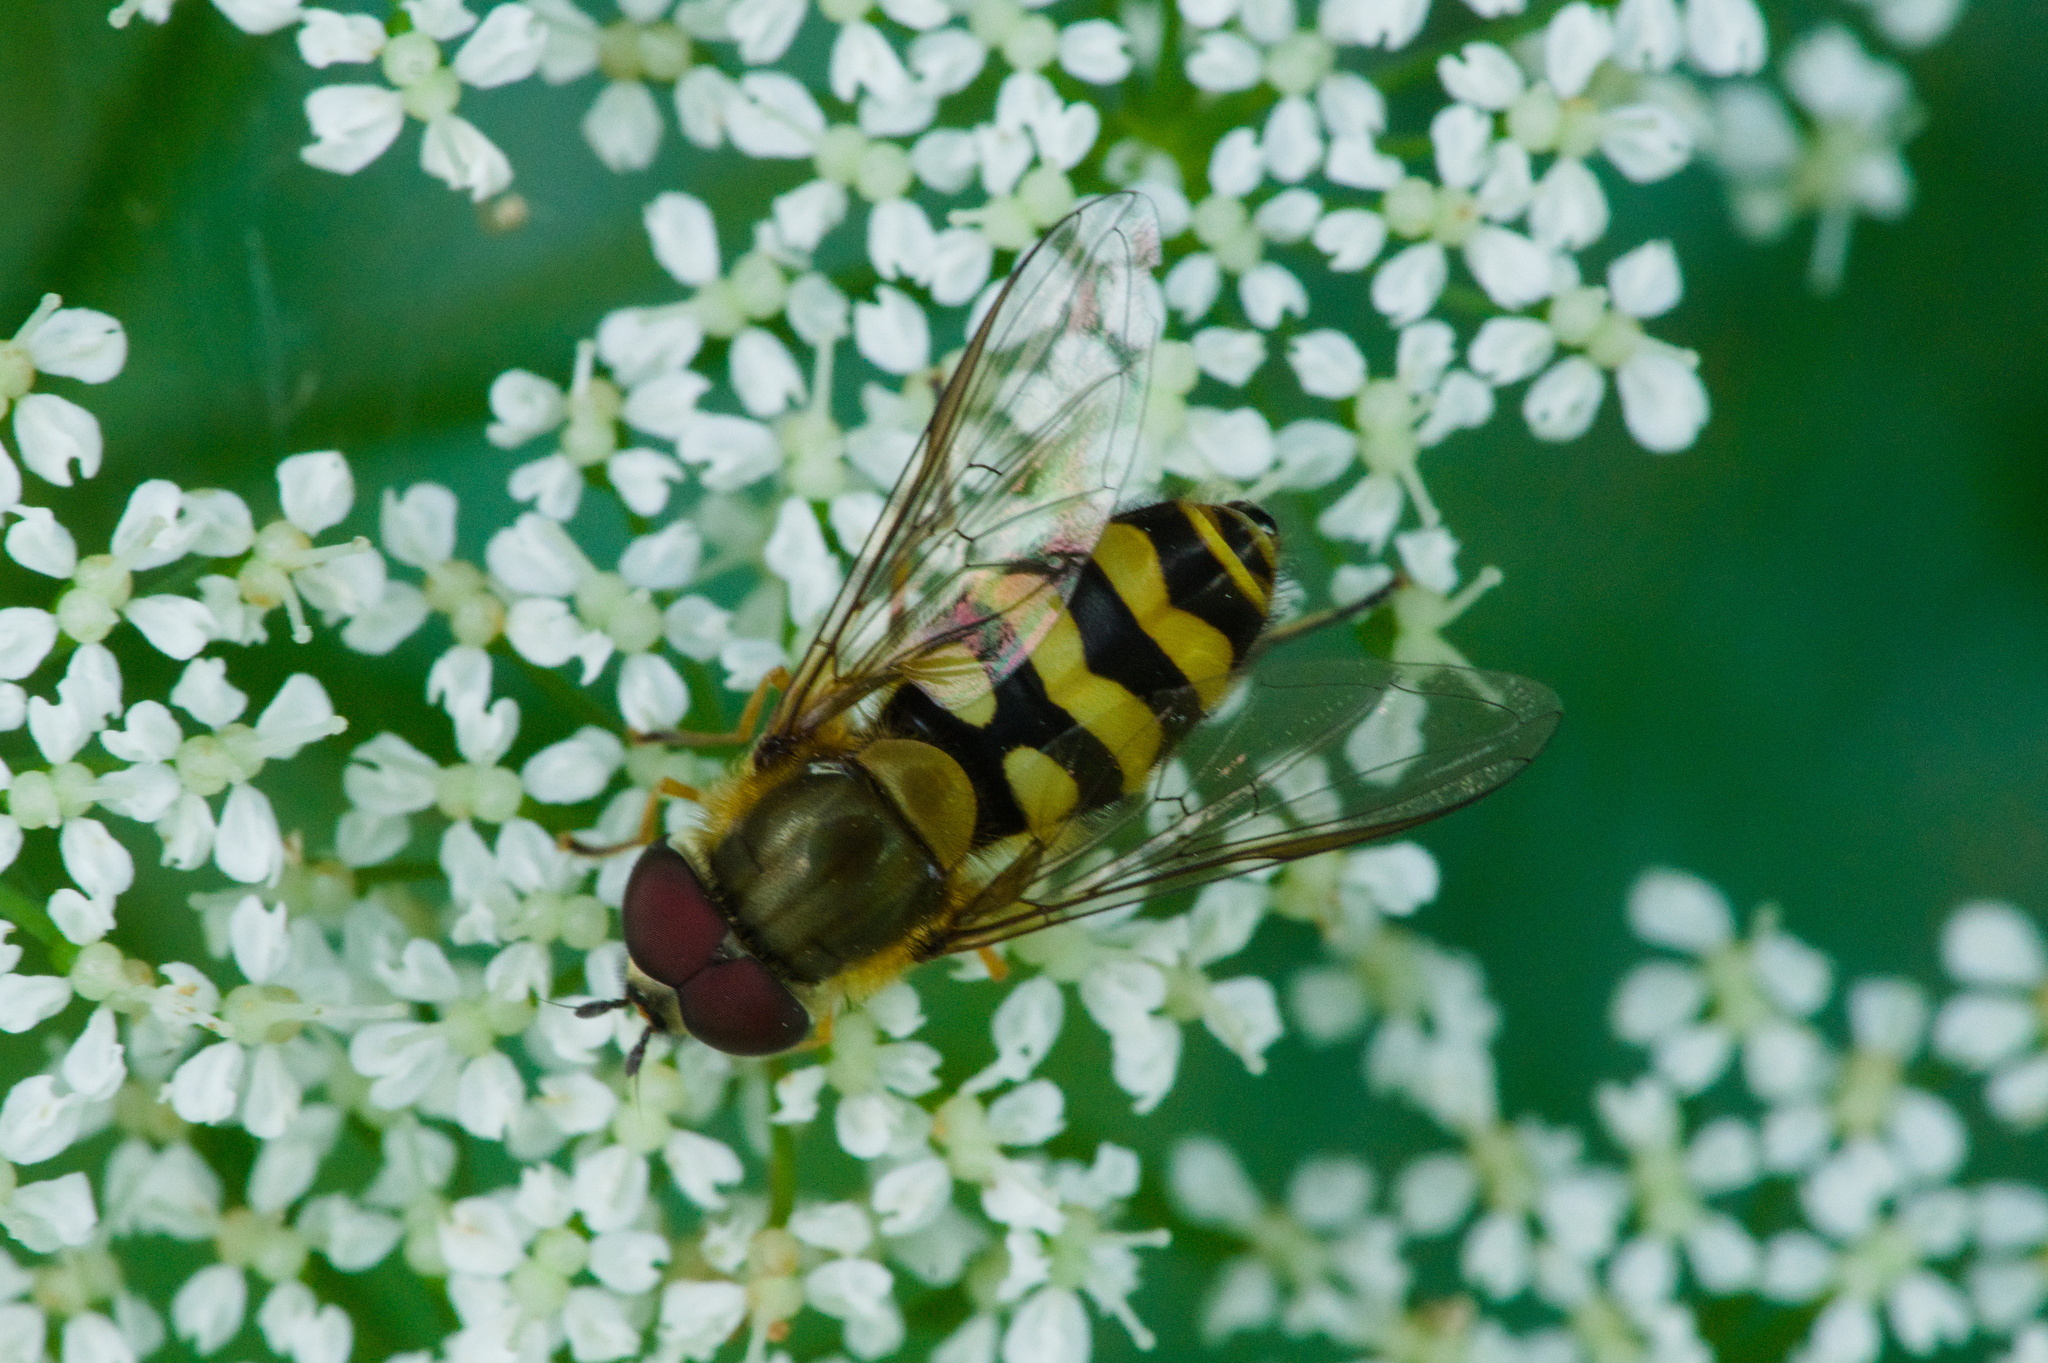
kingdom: Animalia
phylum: Arthropoda
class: Insecta
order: Diptera
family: Syrphidae
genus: Syrphus
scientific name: Syrphus
